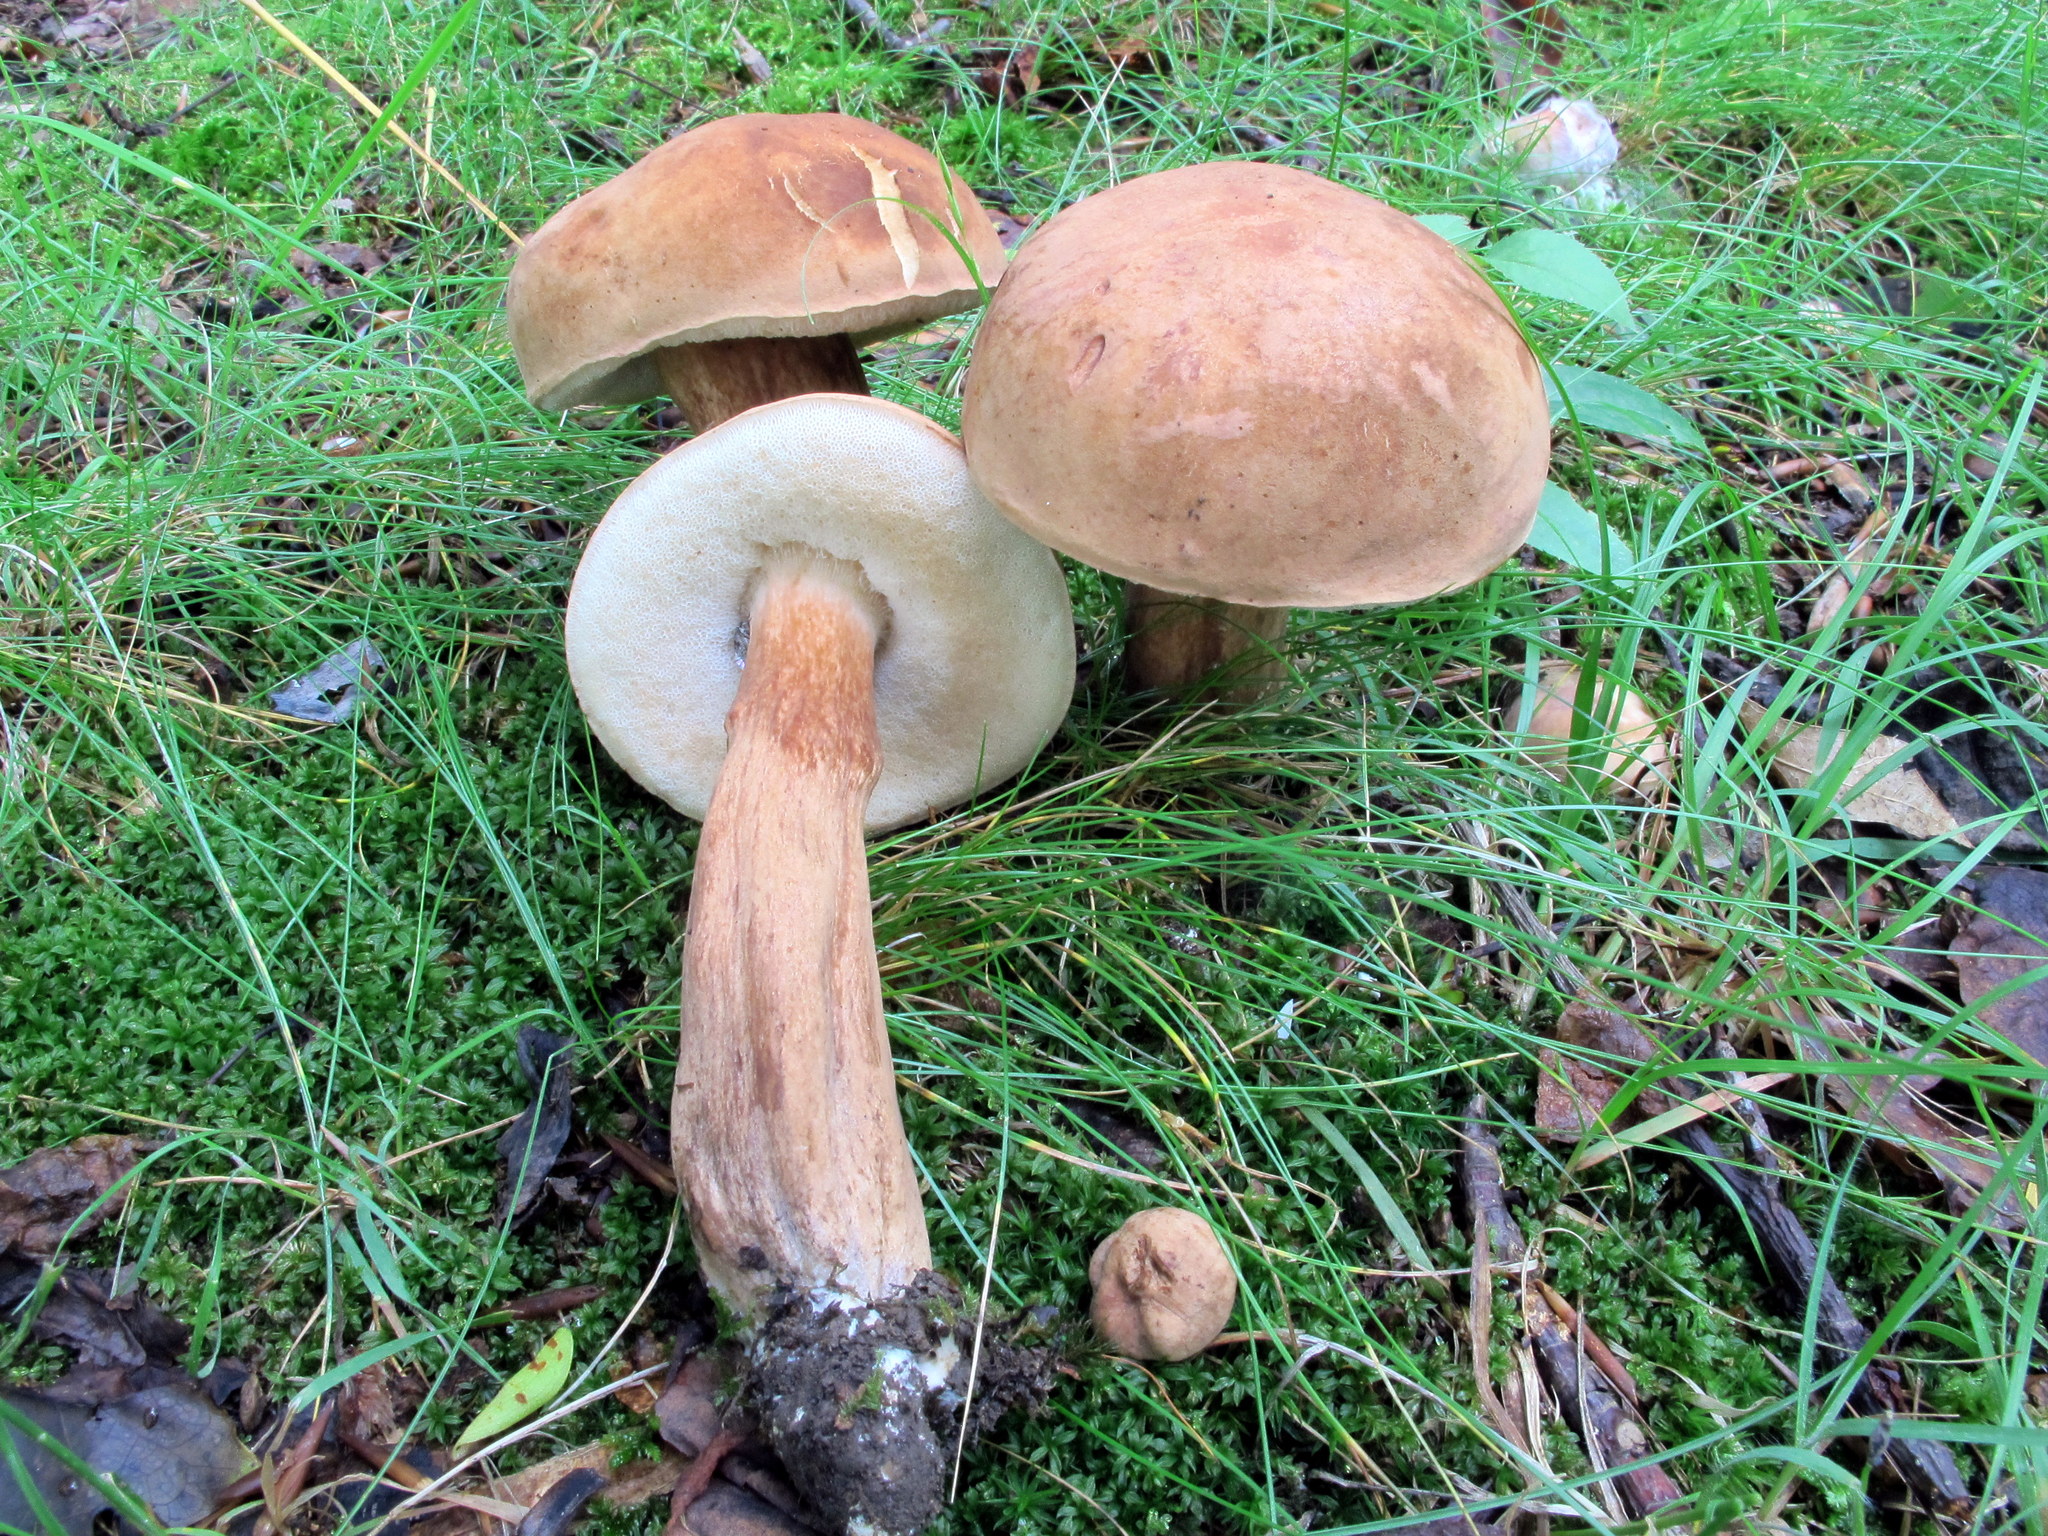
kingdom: Fungi
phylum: Basidiomycota
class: Agaricomycetes
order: Boletales
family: Boletaceae
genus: Tylopilus
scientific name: Tylopilus ferrugineus
